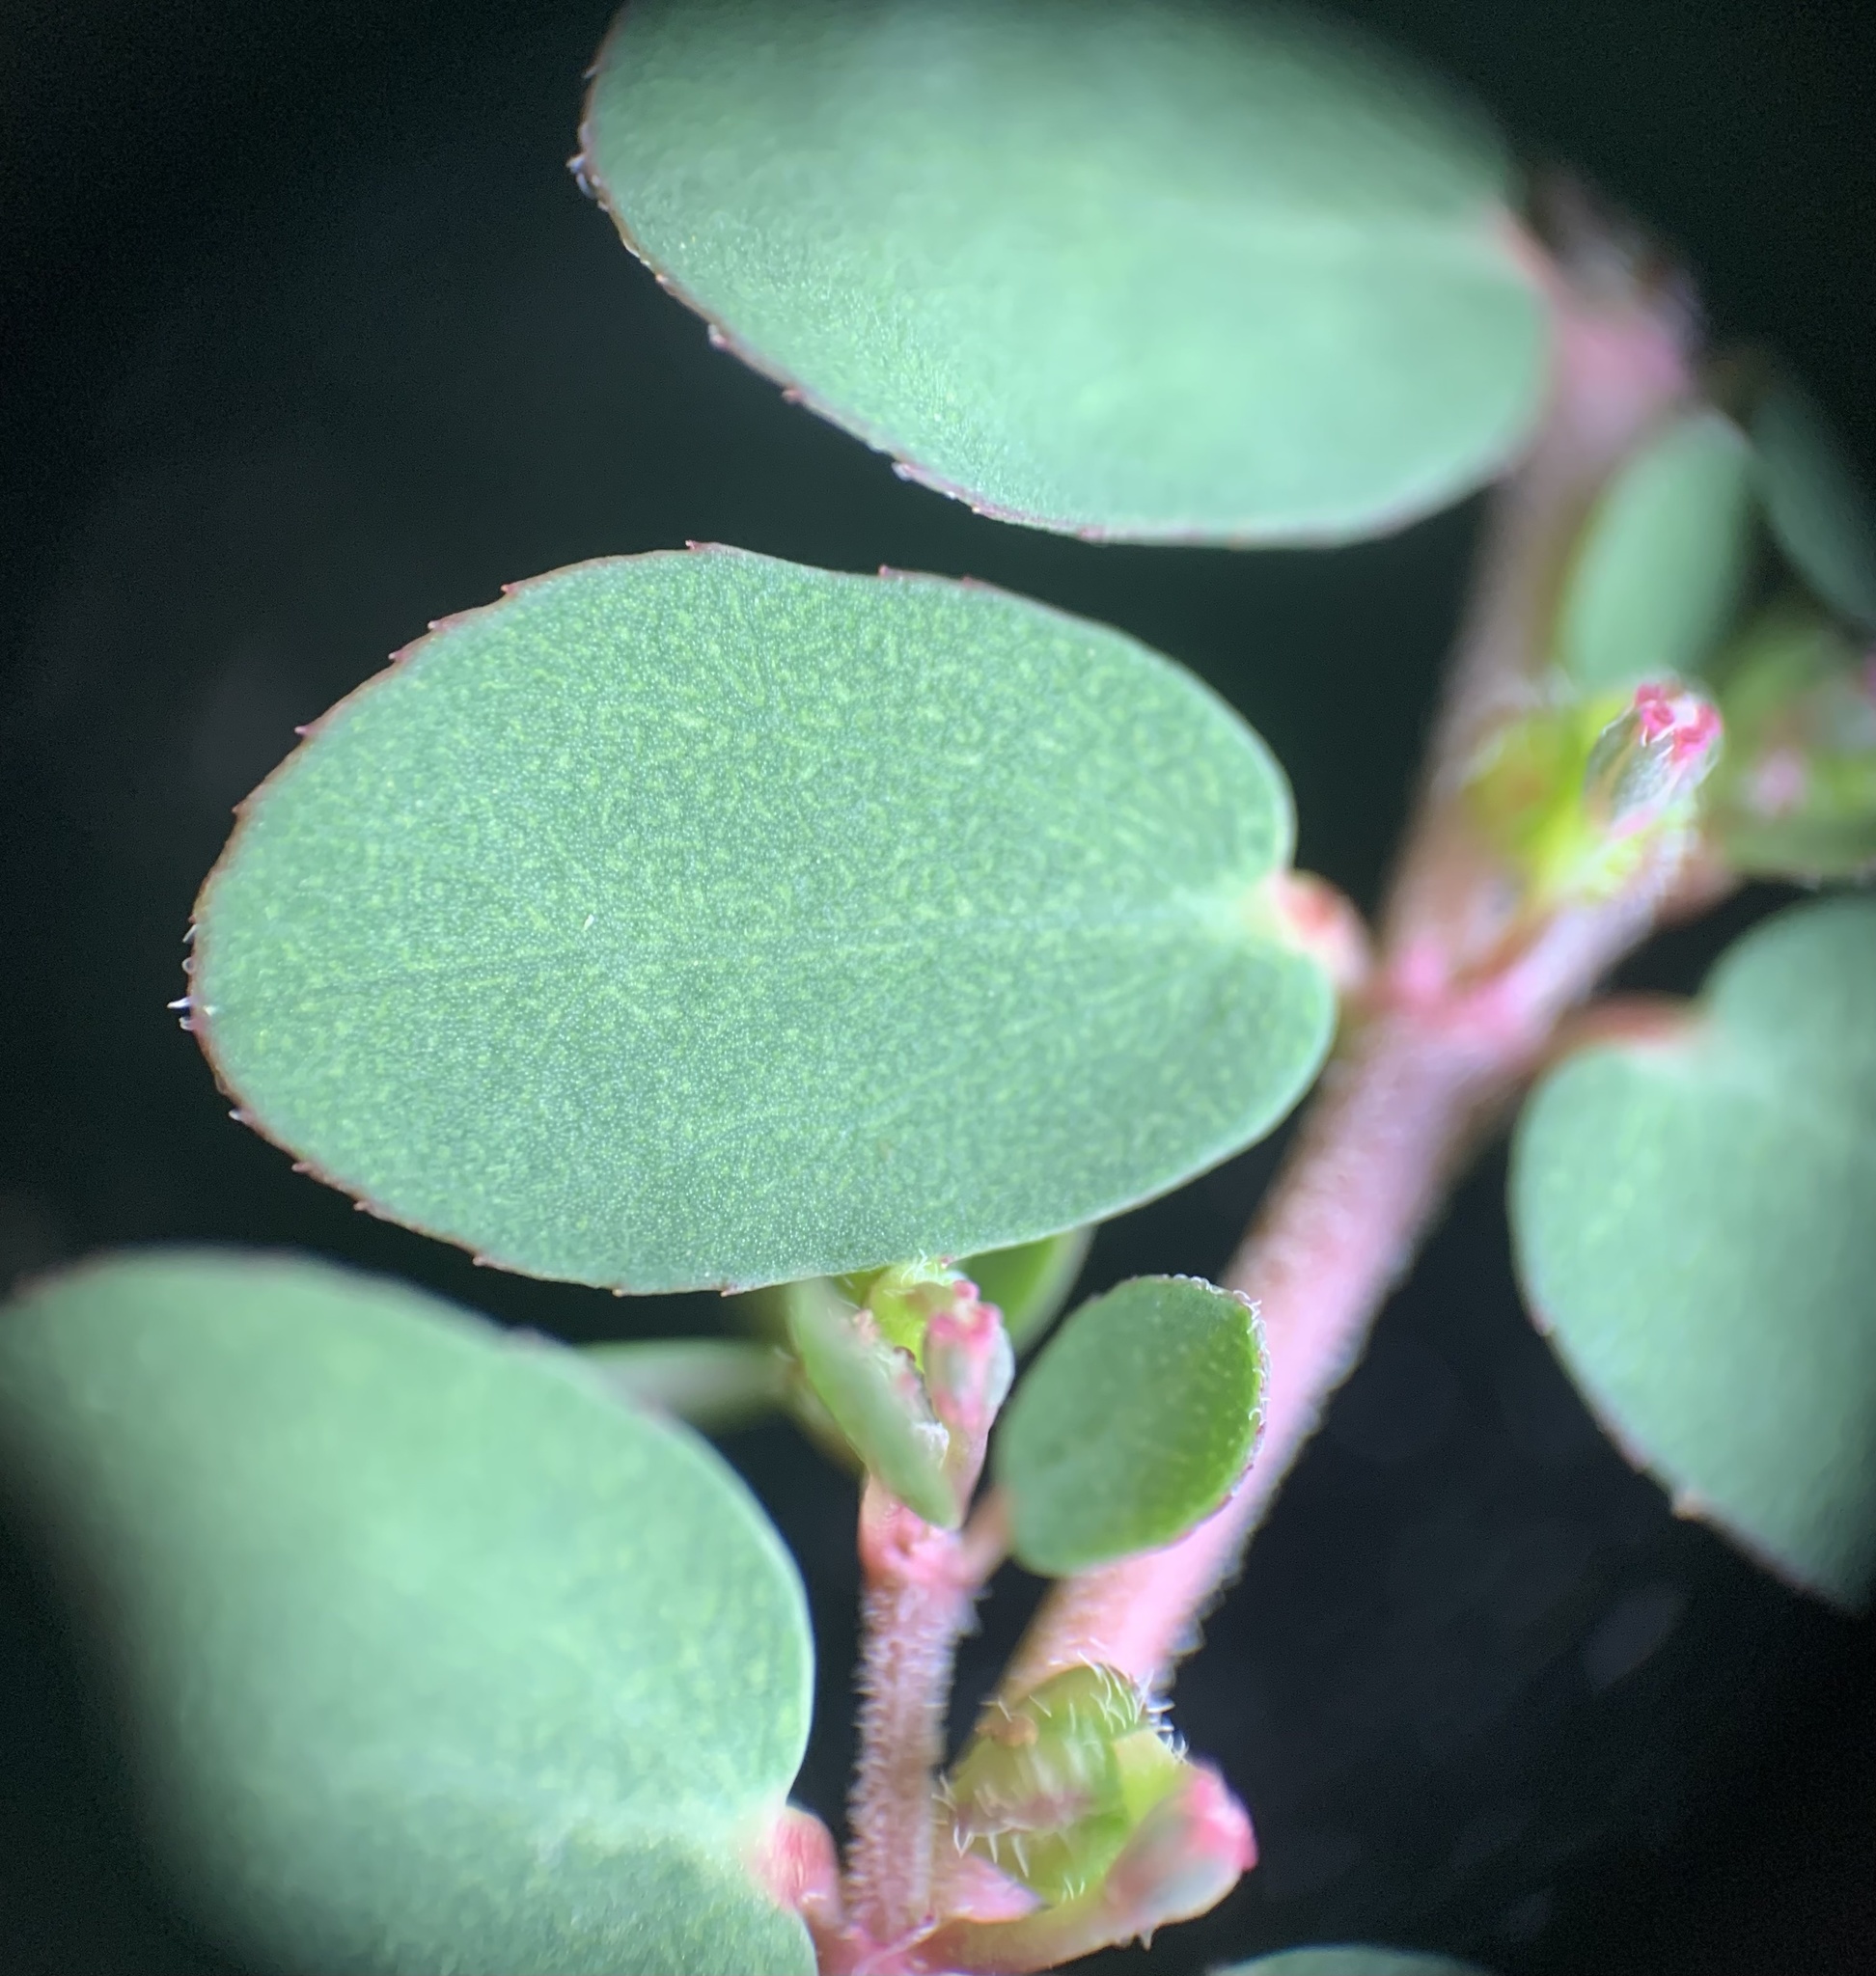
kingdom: Plantae
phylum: Tracheophyta
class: Magnoliopsida
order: Malpighiales
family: Euphorbiaceae
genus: Euphorbia
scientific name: Euphorbia prostrata
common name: Prostrate sandmat
